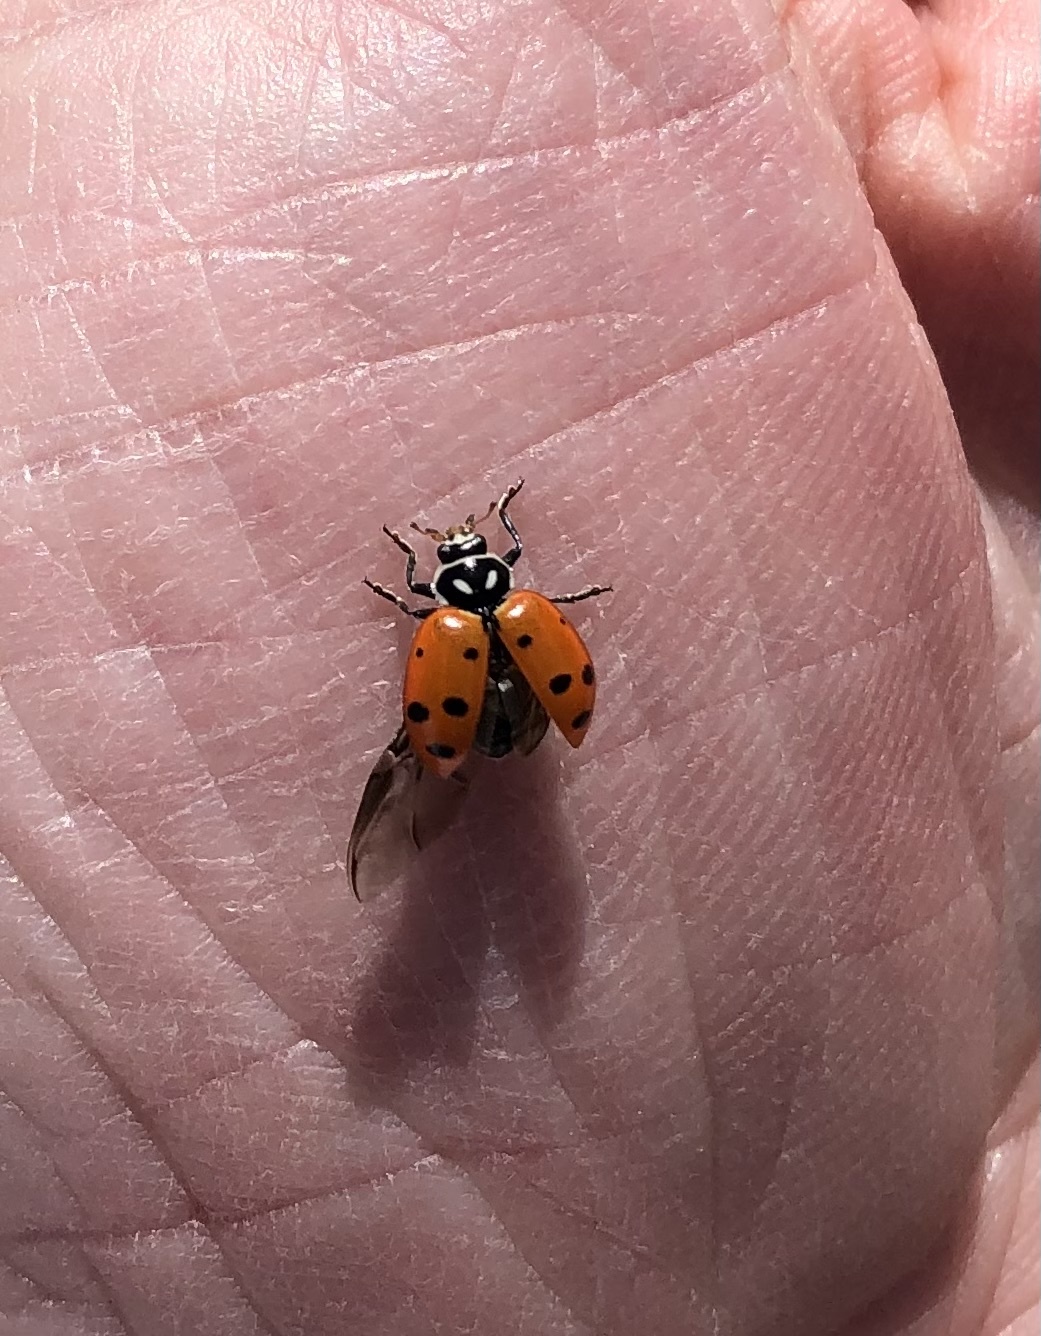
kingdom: Animalia
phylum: Arthropoda
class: Insecta
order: Coleoptera
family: Coccinellidae
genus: Hippodamia
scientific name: Hippodamia convergens
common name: Convergent lady beetle
